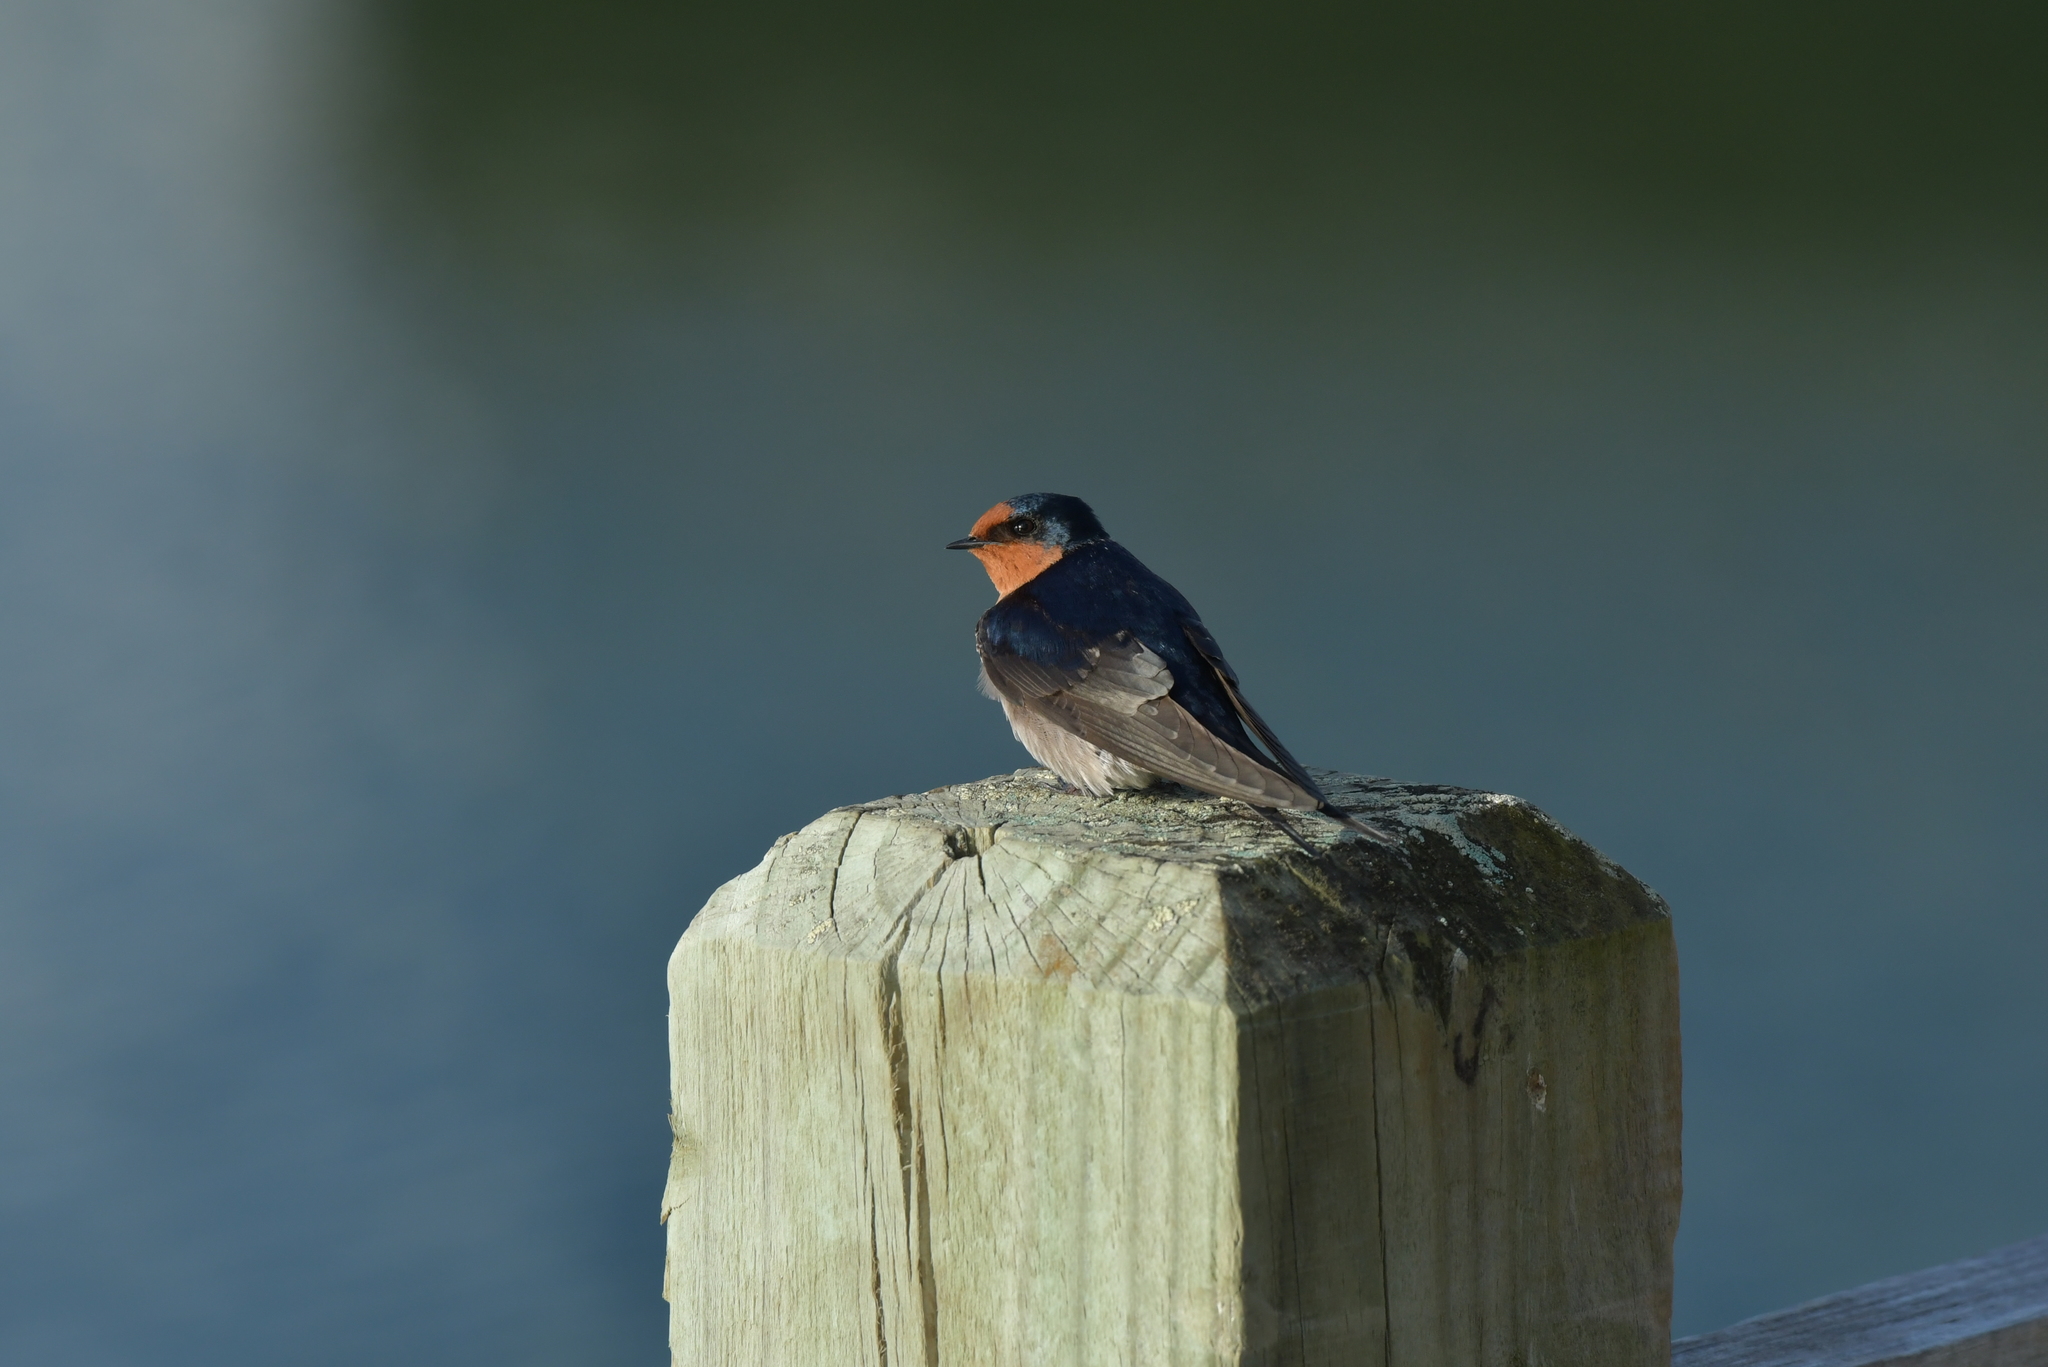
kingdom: Animalia
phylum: Chordata
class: Aves
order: Passeriformes
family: Hirundinidae
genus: Hirundo
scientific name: Hirundo neoxena
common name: Welcome swallow
